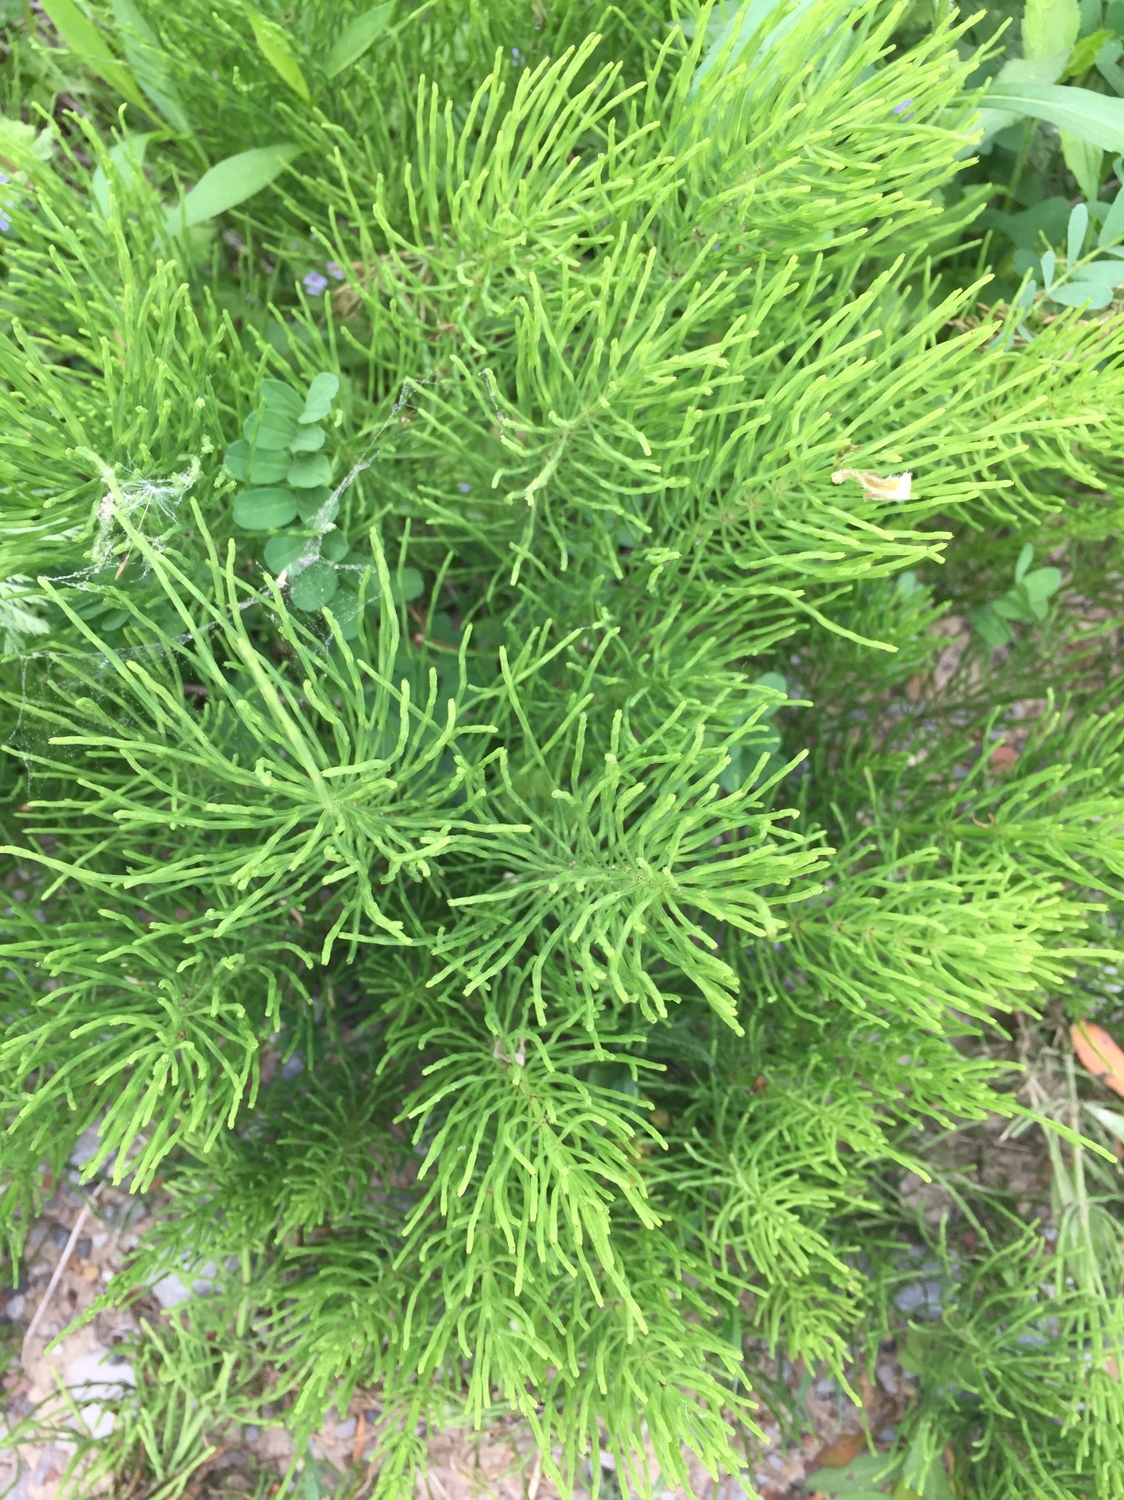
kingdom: Plantae
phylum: Tracheophyta
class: Polypodiopsida
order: Equisetales
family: Equisetaceae
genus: Equisetum
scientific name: Equisetum arvense
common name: Field horsetail
